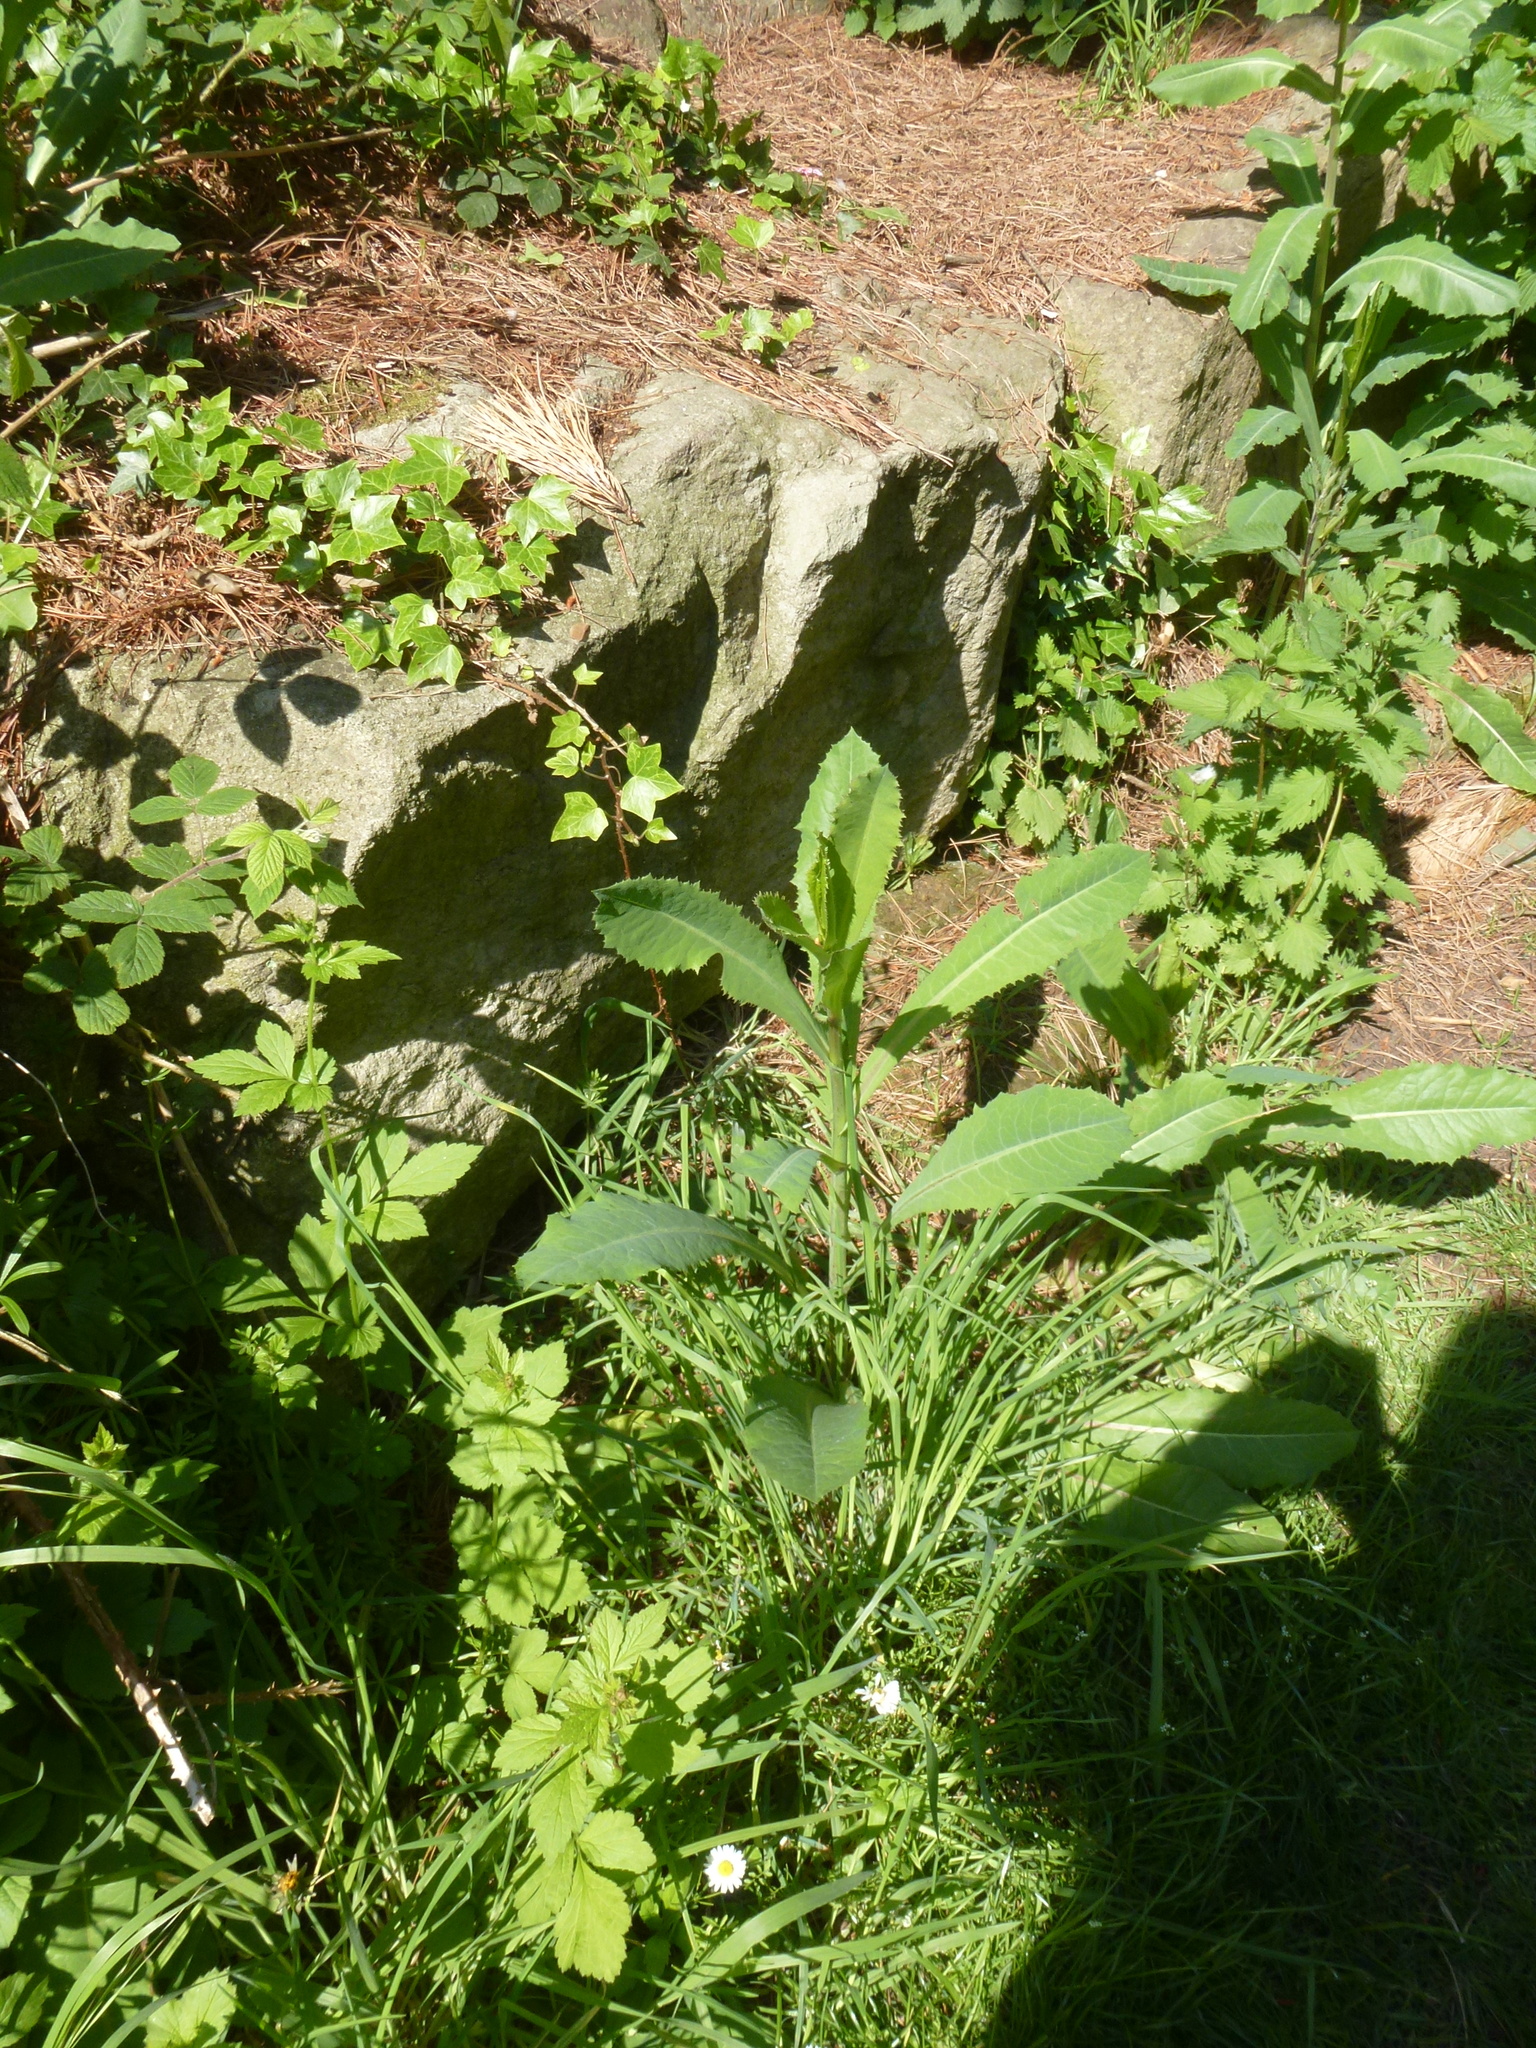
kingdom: Plantae
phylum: Tracheophyta
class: Magnoliopsida
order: Asterales
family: Asteraceae
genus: Lactuca
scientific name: Lactuca serriola
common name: Prickly lettuce
